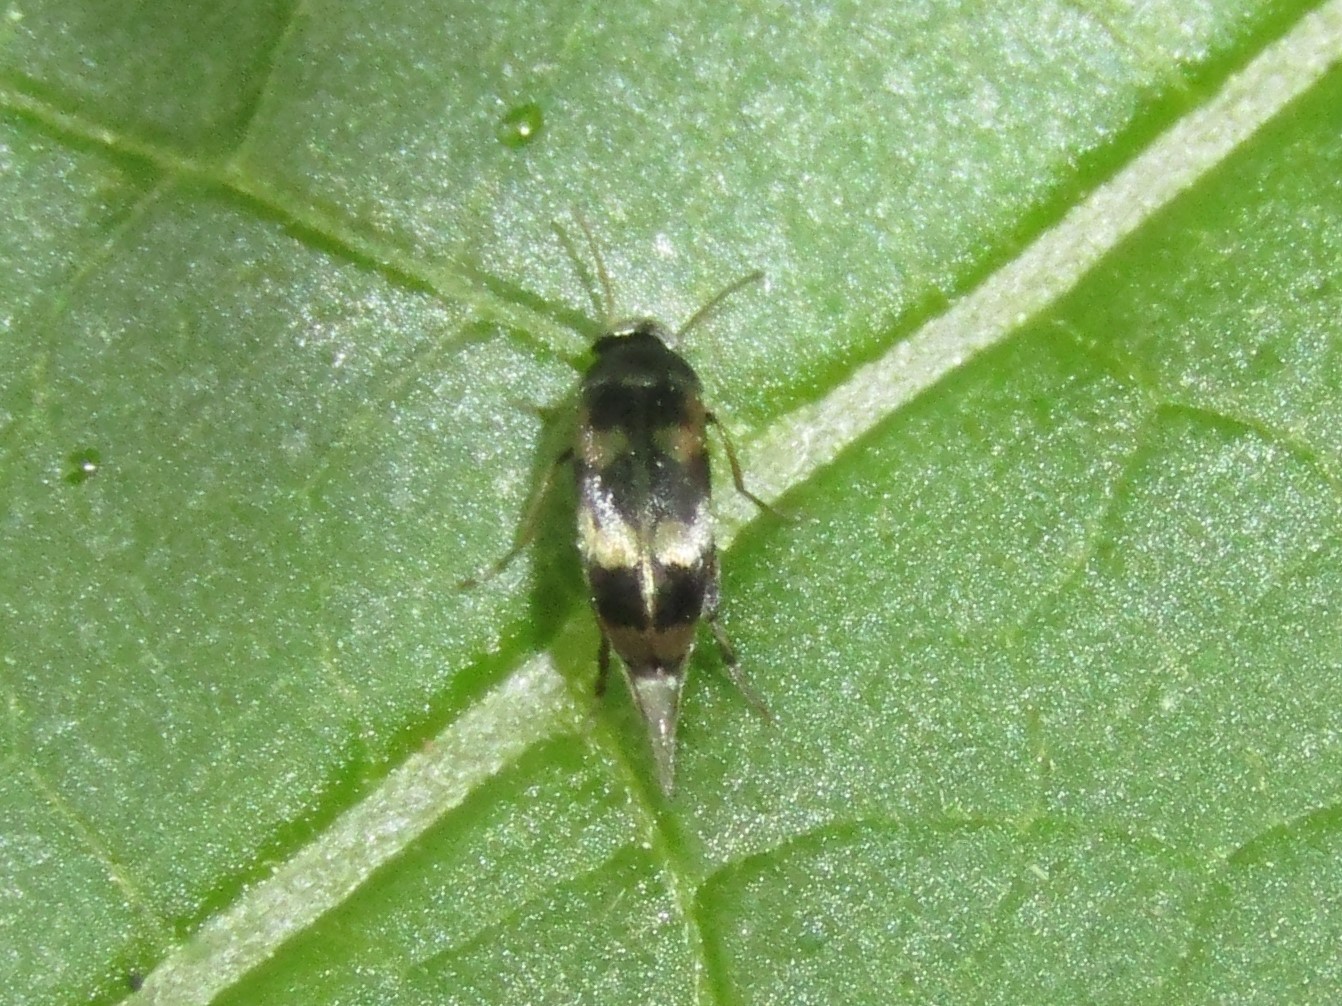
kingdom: Animalia
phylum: Arthropoda
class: Insecta
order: Coleoptera
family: Mordellidae
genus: Falsomordellistena
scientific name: Falsomordellistena pubescens
